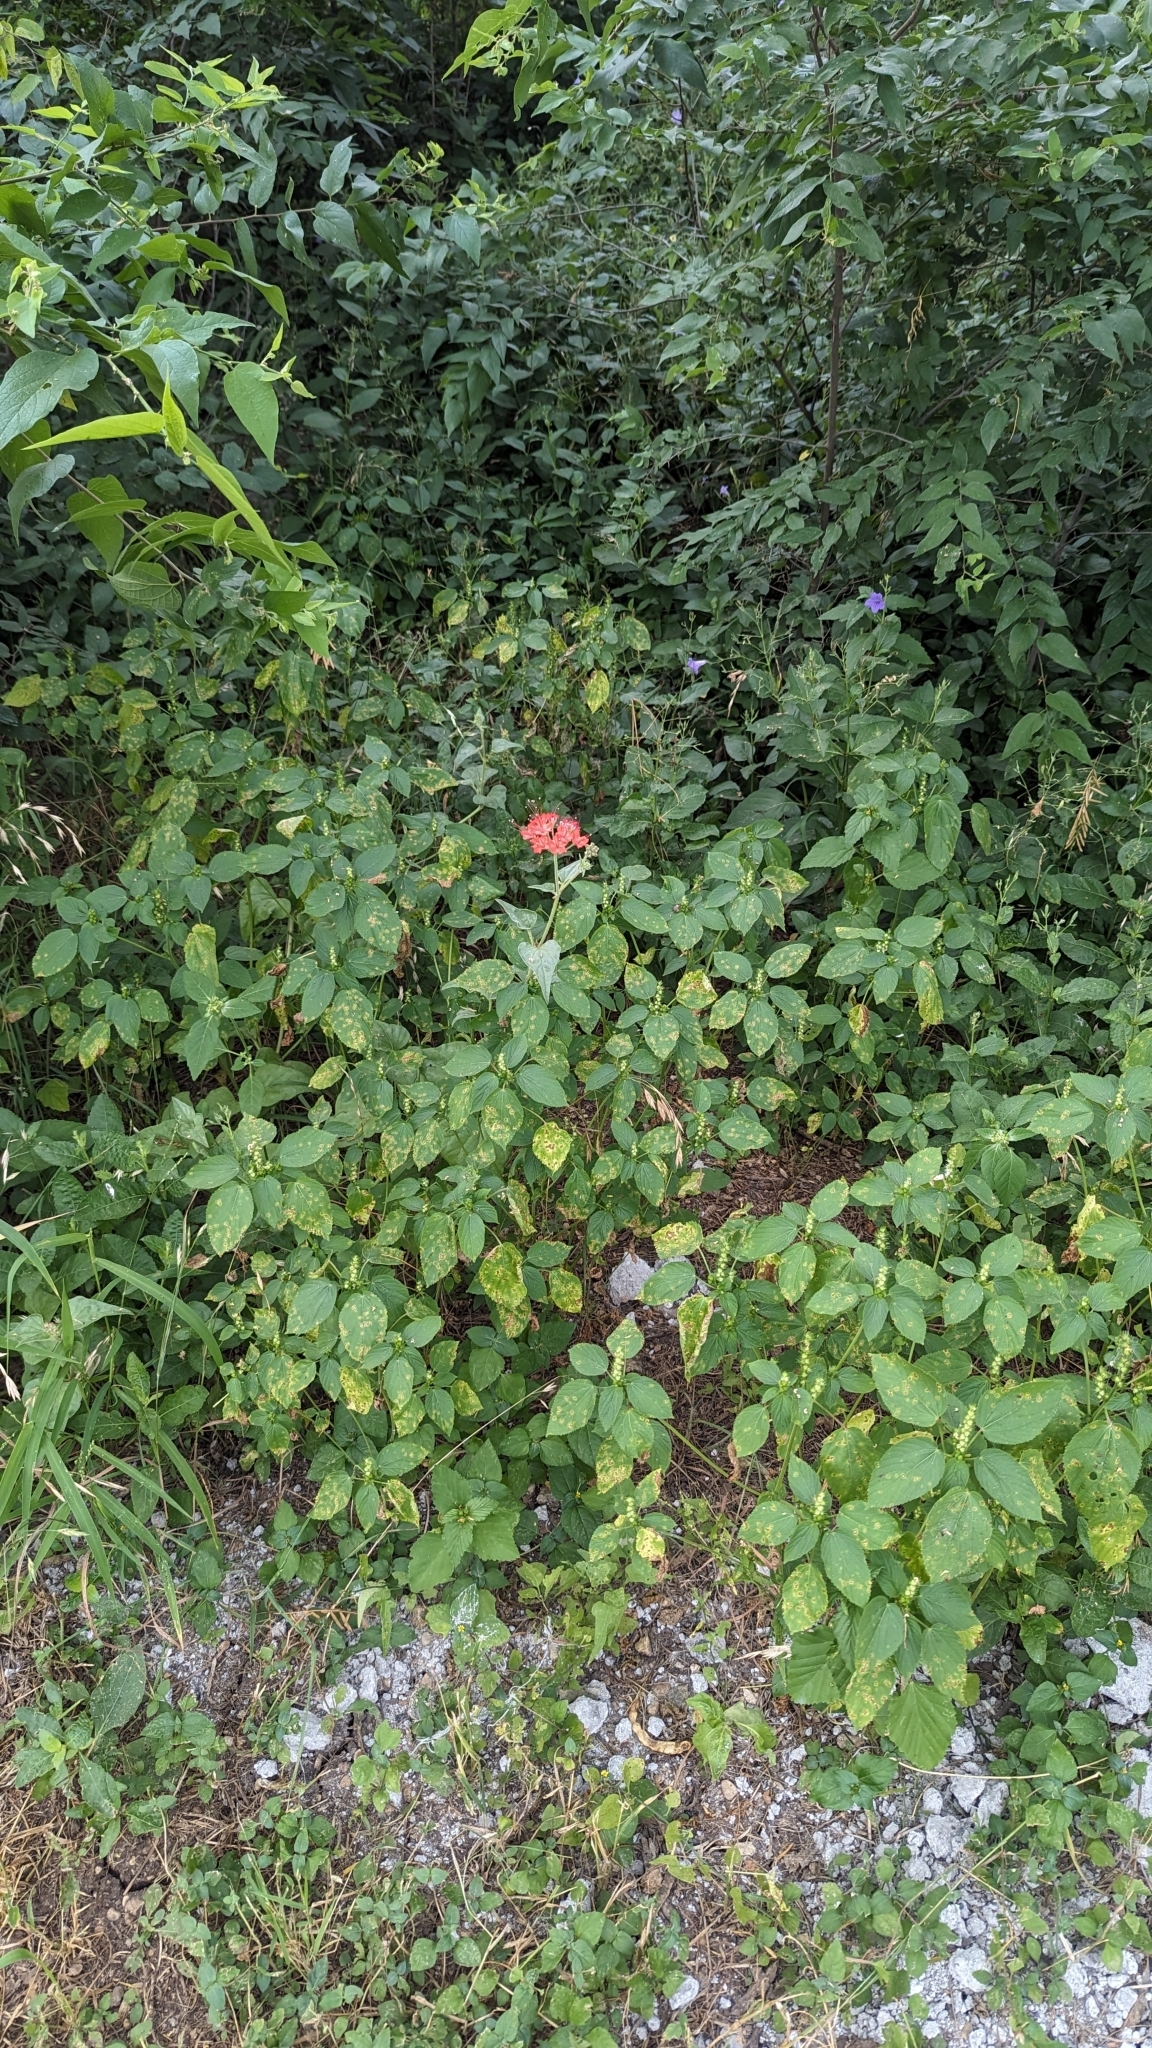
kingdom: Plantae
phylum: Tracheophyta
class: Magnoliopsida
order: Caryophyllales
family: Nyctaginaceae
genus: Nyctaginia
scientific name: Nyctaginia capitata
